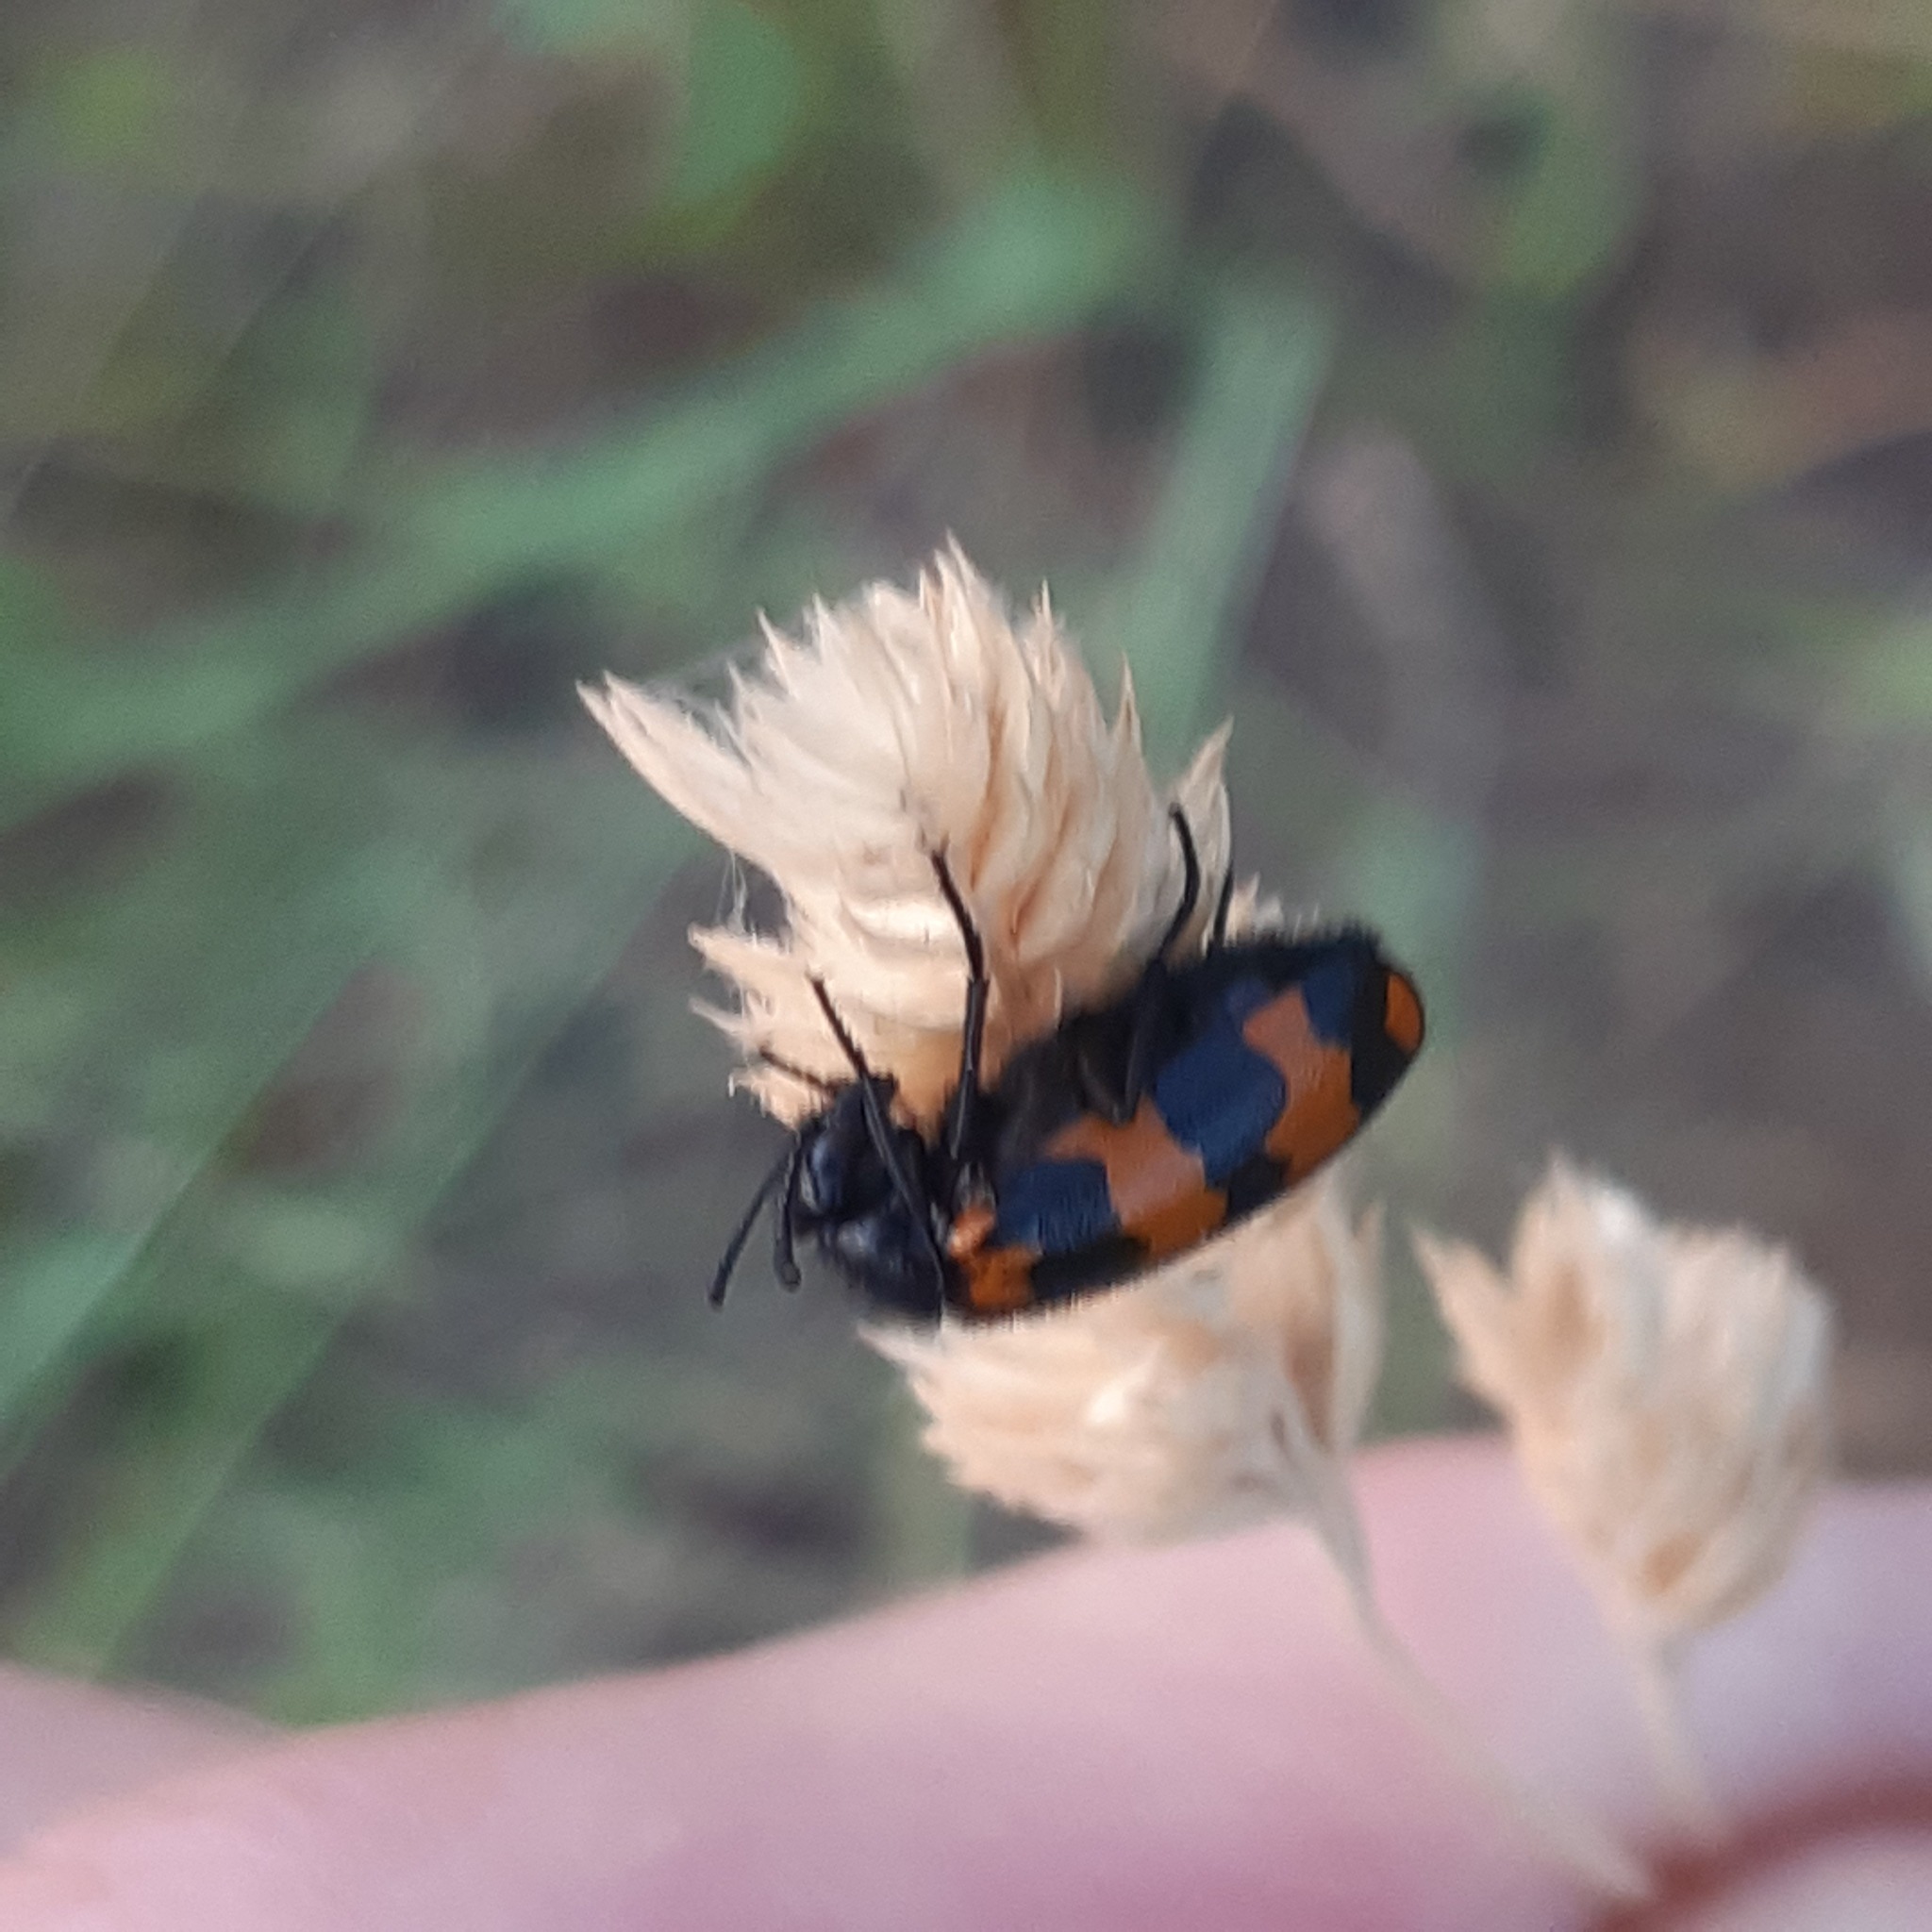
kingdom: Animalia
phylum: Arthropoda
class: Insecta
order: Coleoptera
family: Meloidae
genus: Mylabris
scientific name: Mylabris connata
